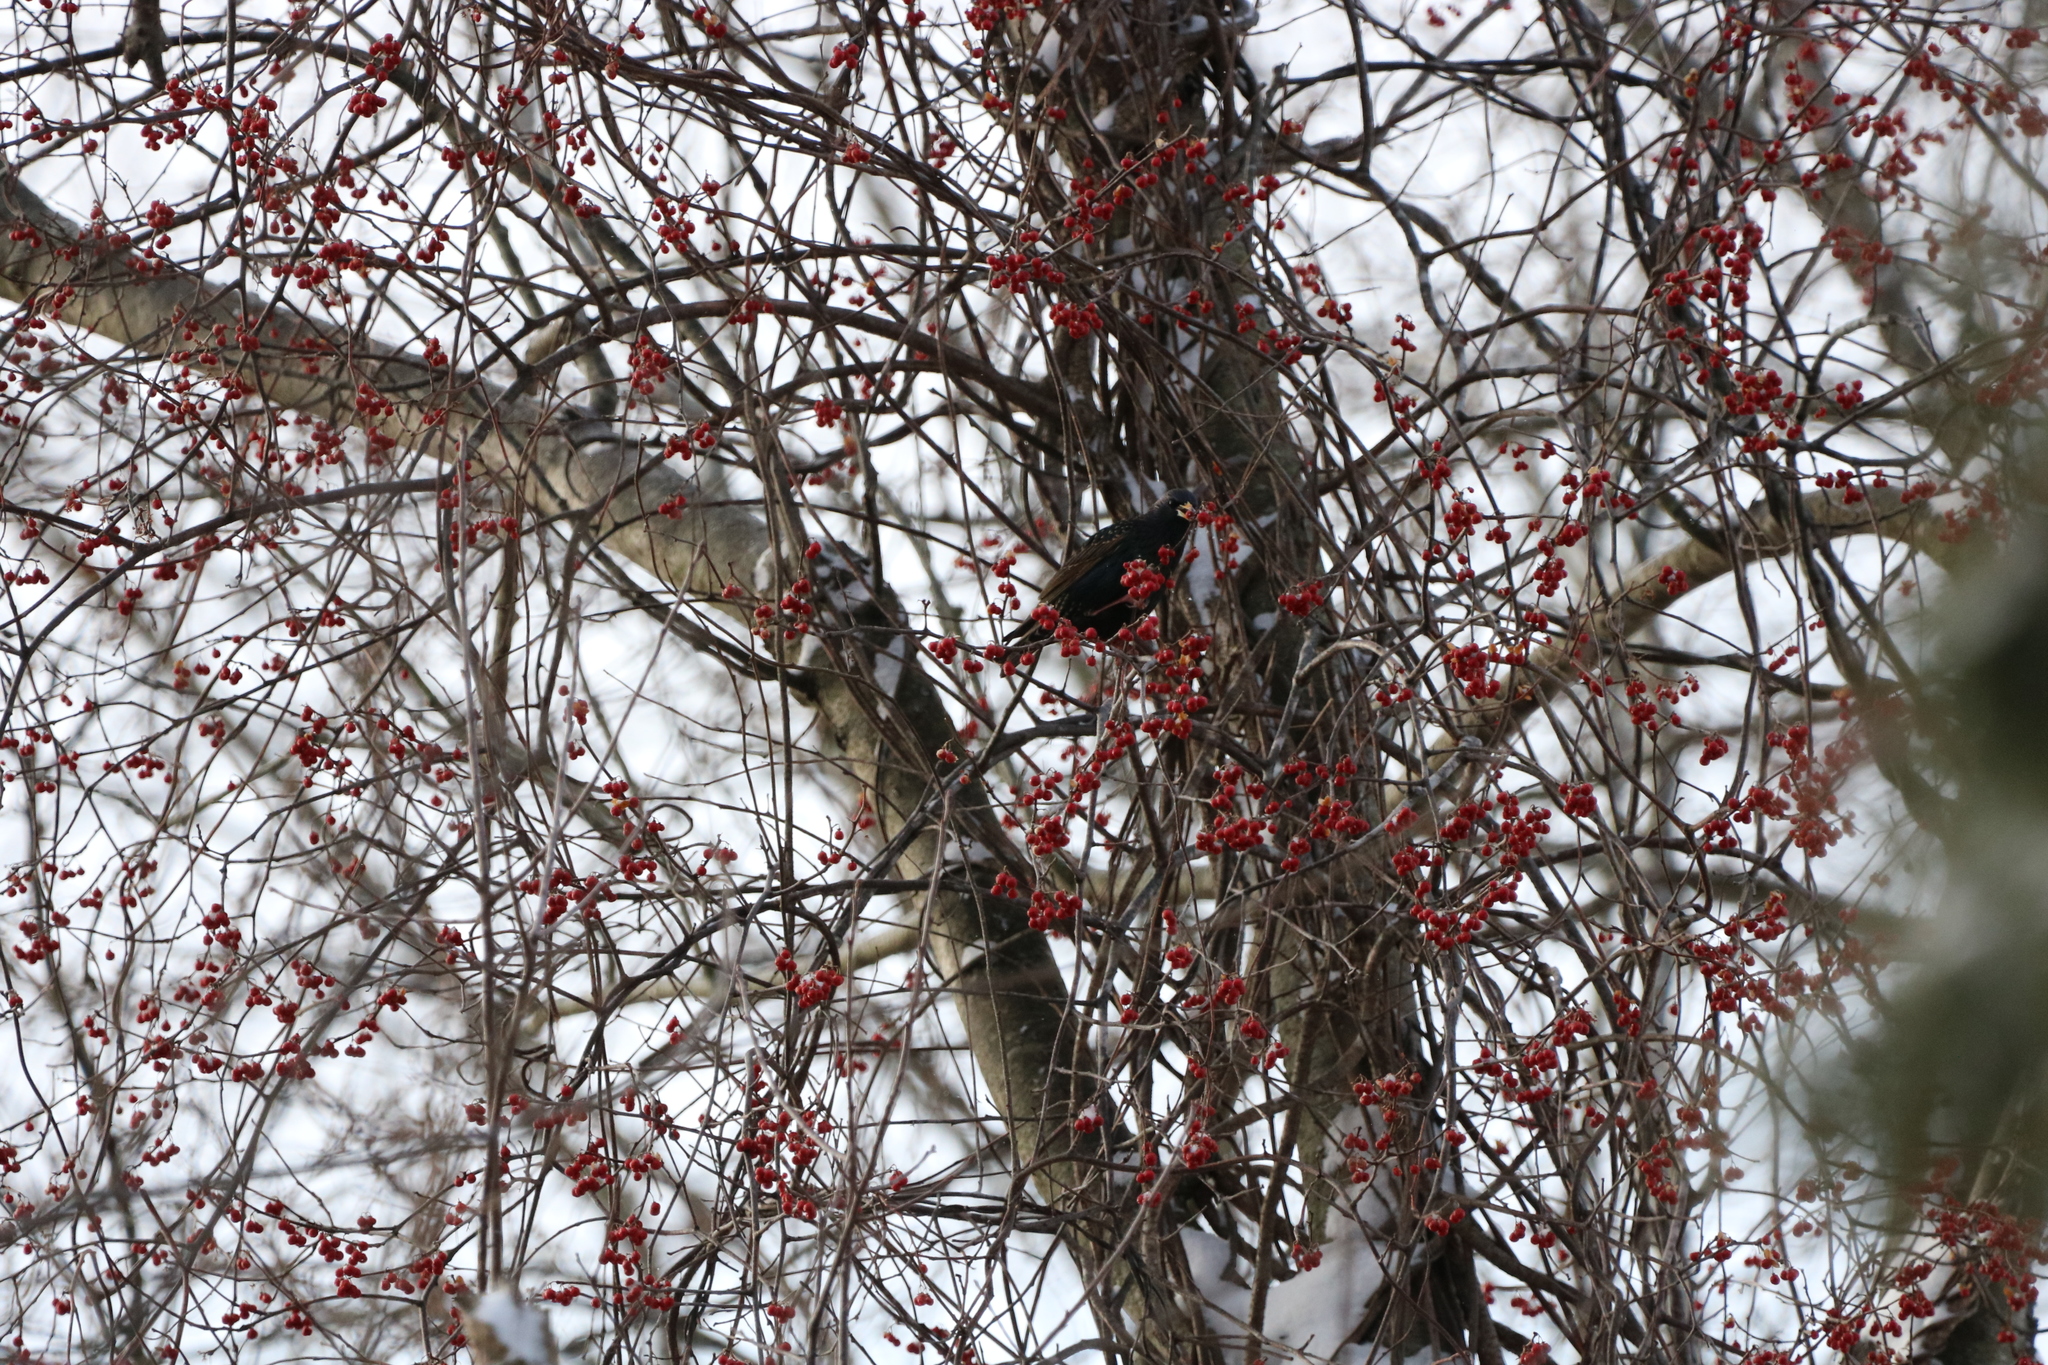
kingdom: Animalia
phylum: Chordata
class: Aves
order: Passeriformes
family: Sturnidae
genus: Sturnus
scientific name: Sturnus vulgaris
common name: Common starling
